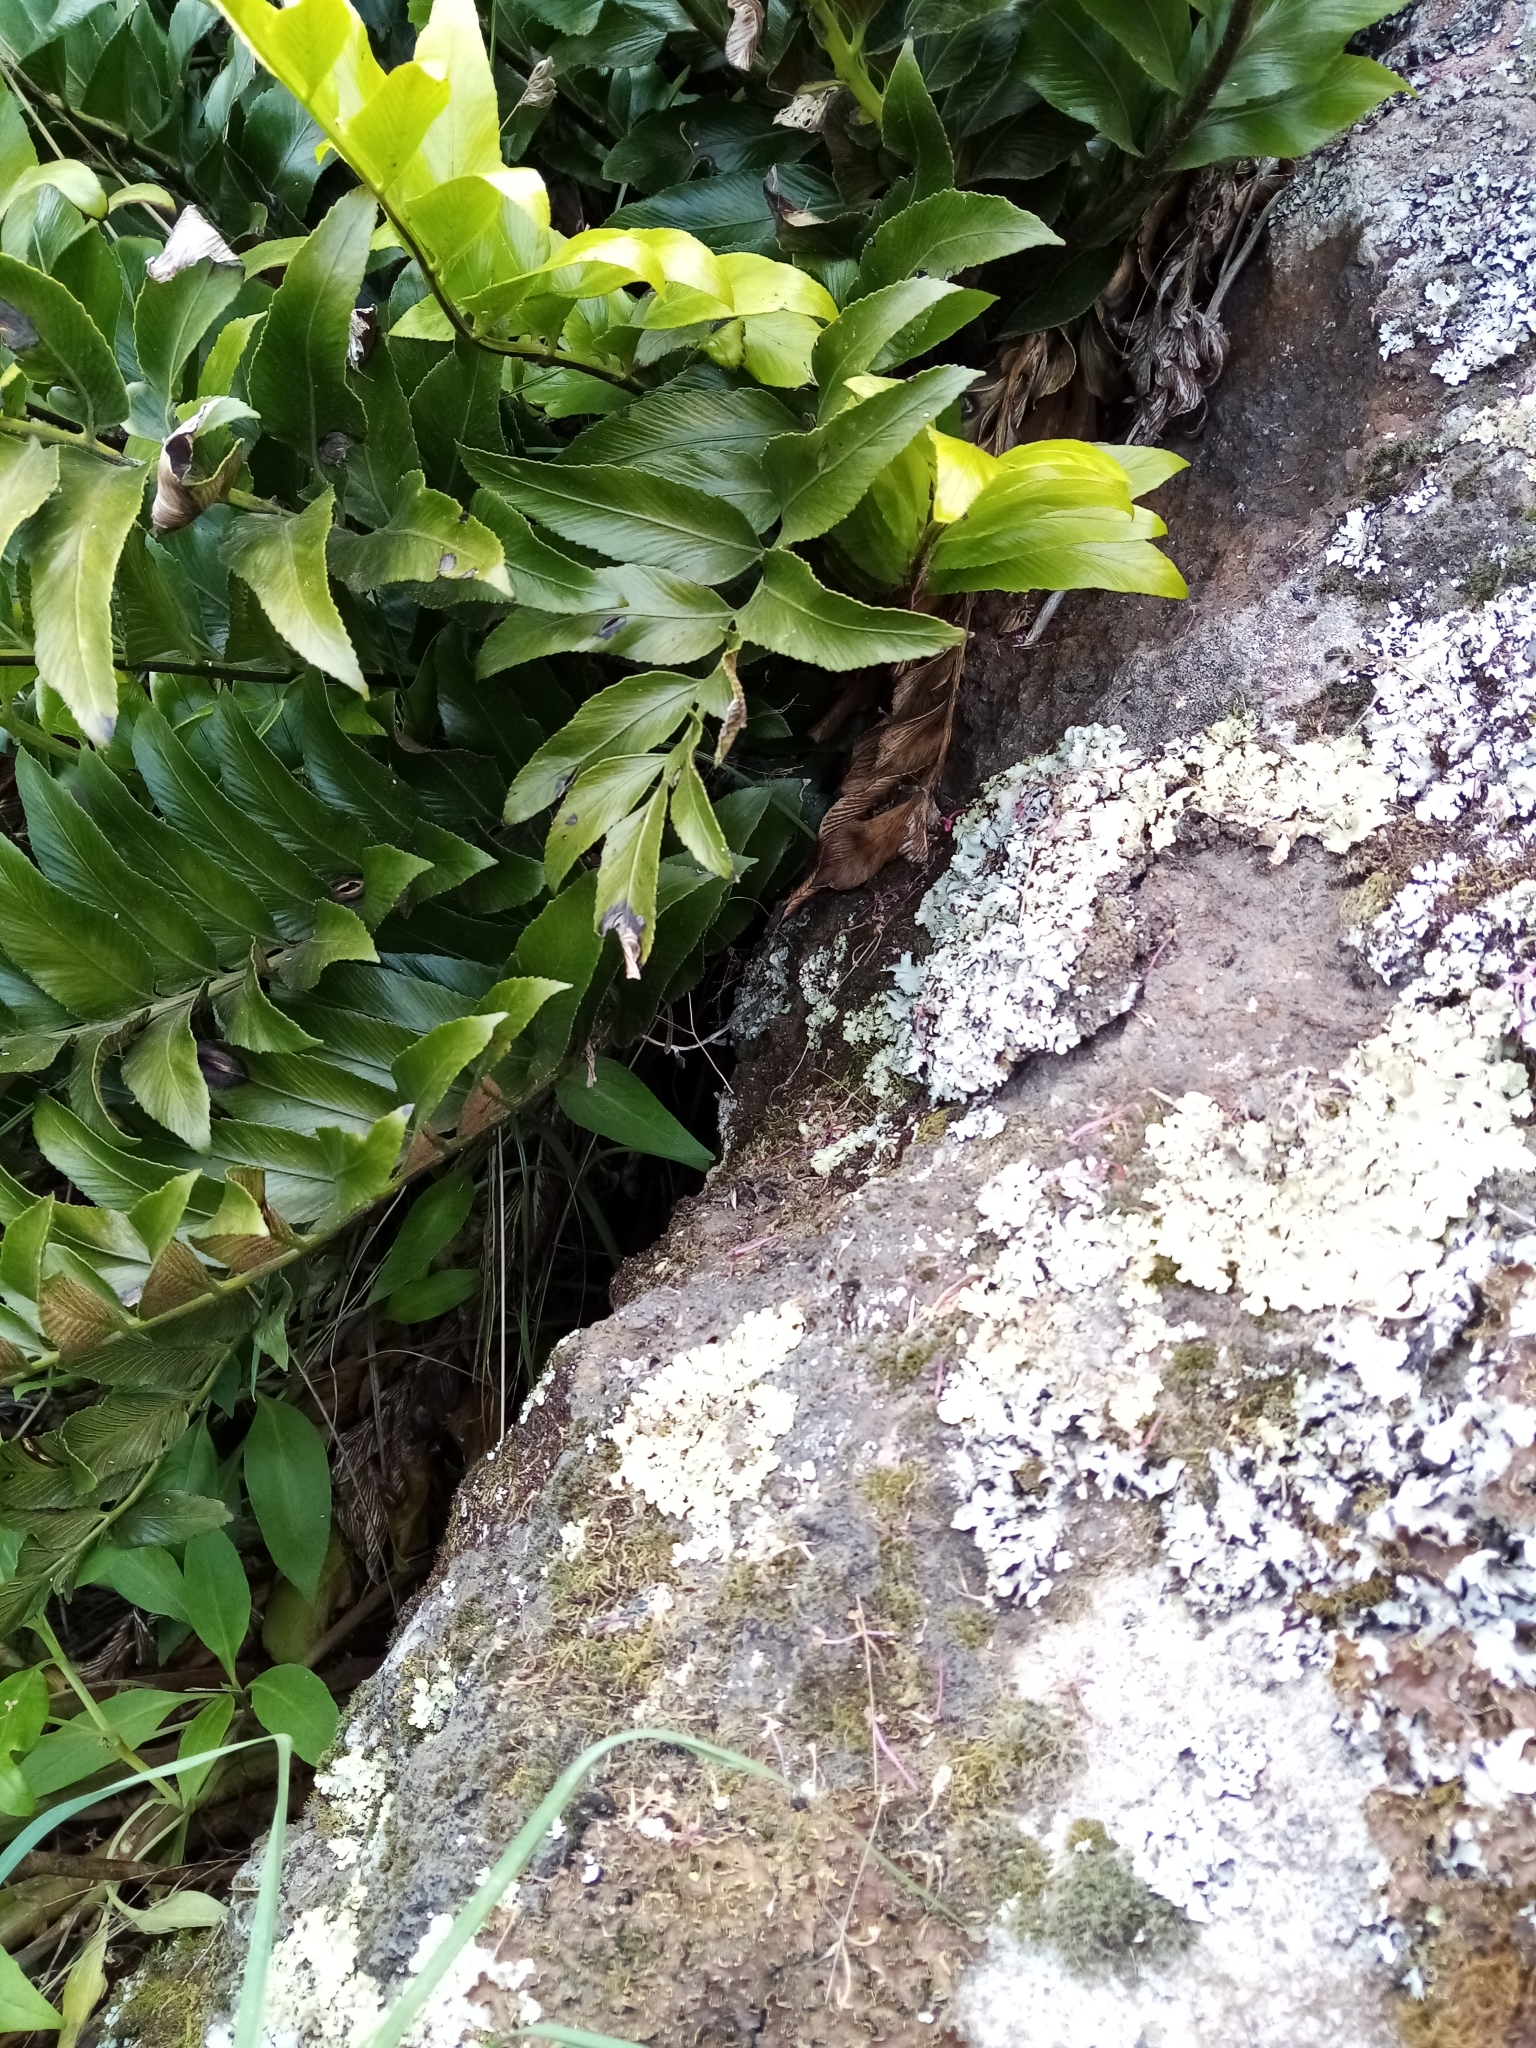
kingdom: Plantae
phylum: Tracheophyta
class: Polypodiopsida
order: Polypodiales
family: Aspleniaceae
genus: Asplenium
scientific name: Asplenium oblongifolium
